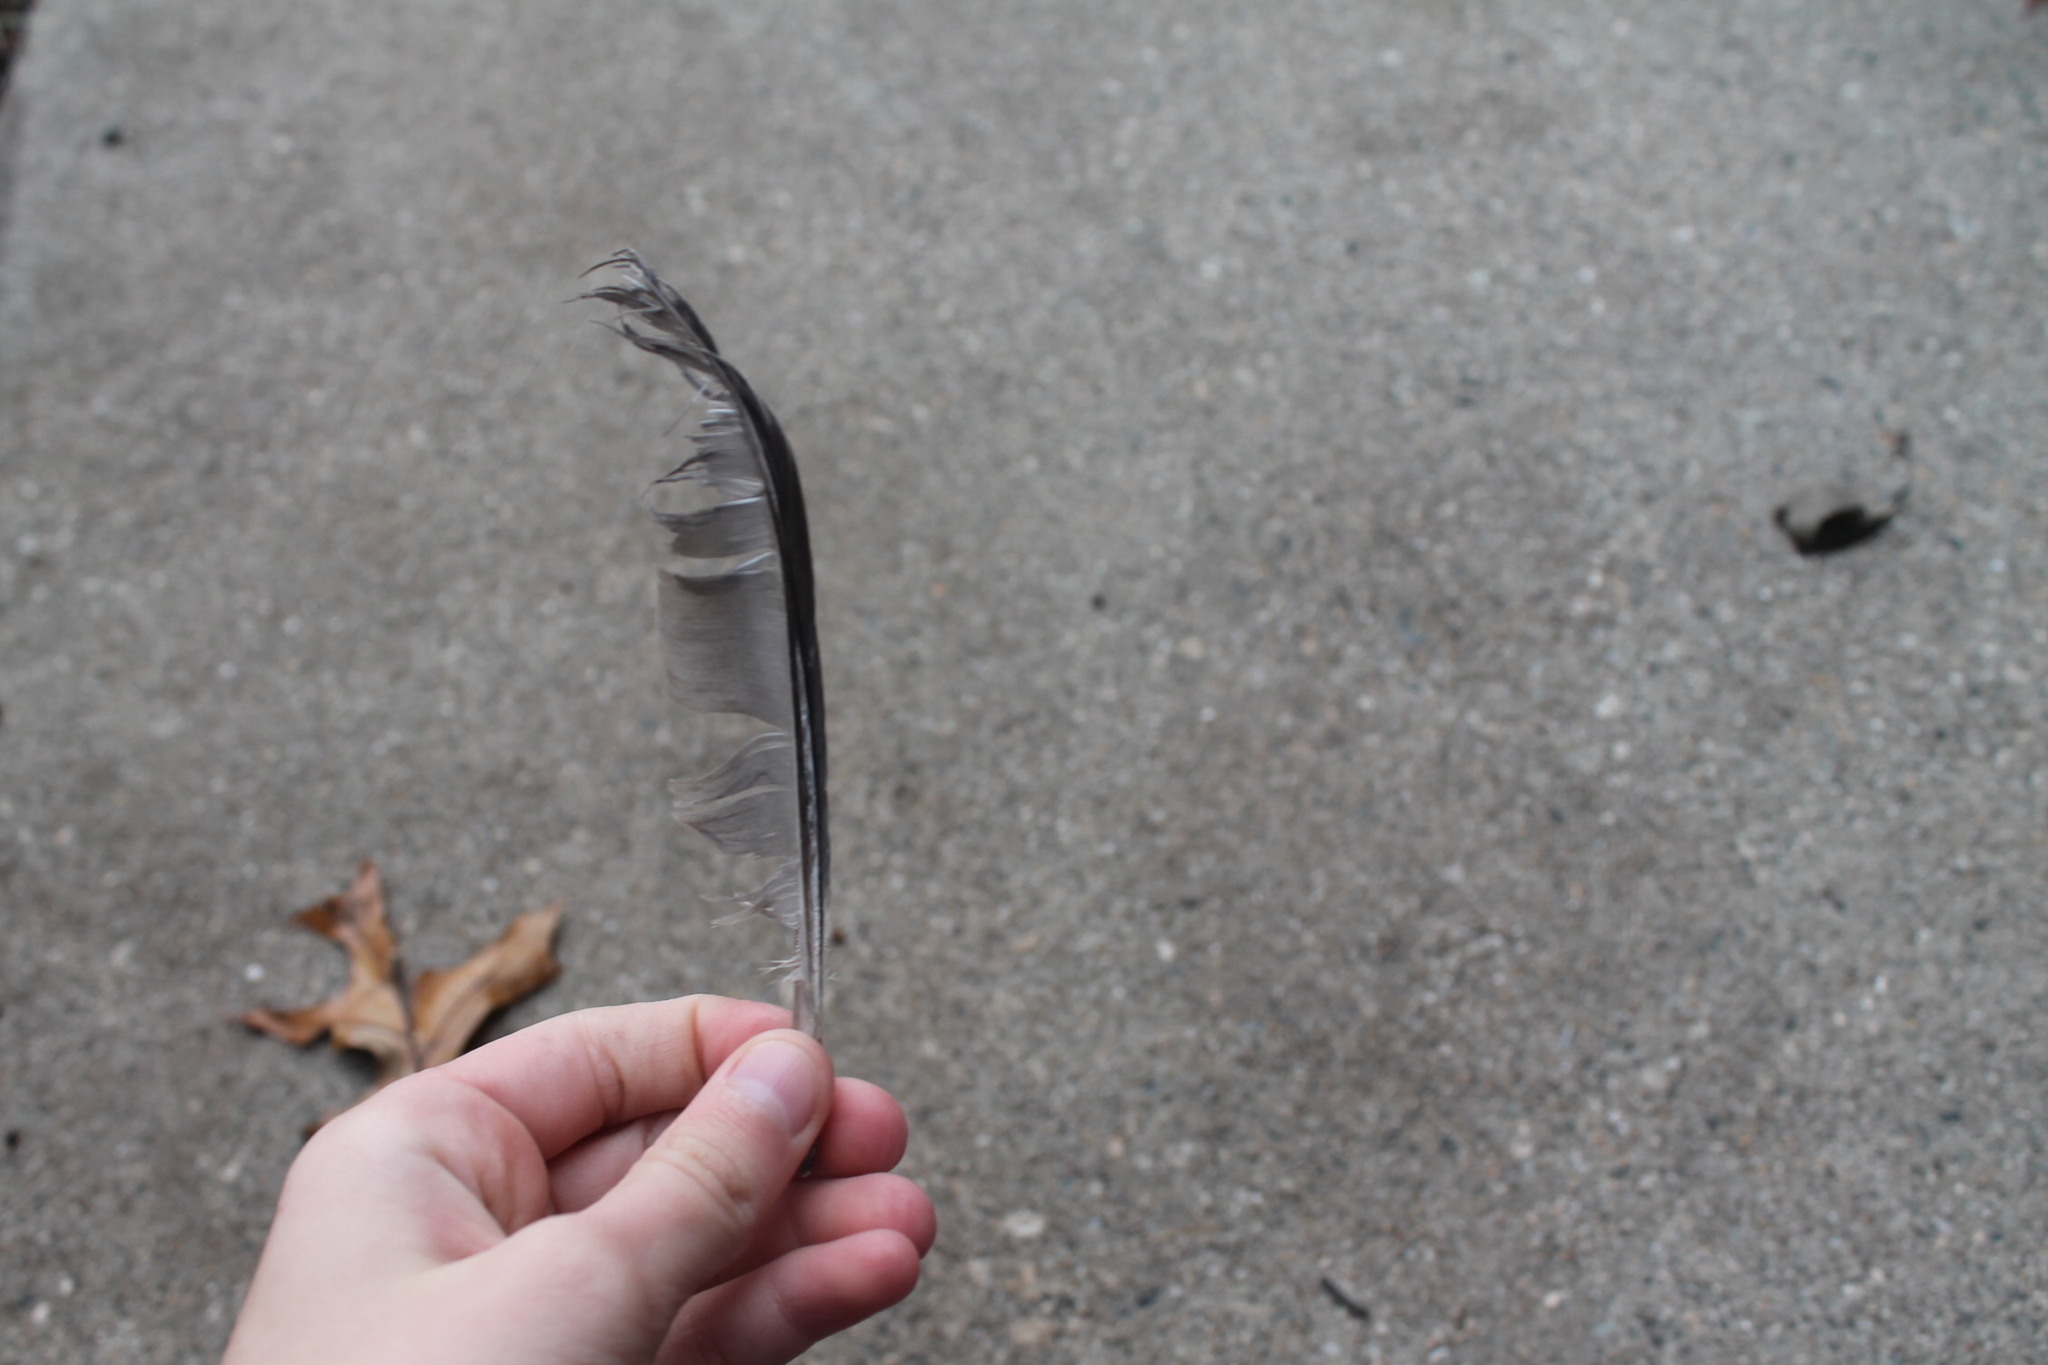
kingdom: Animalia
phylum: Chordata
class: Aves
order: Columbiformes
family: Columbidae
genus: Columba
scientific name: Columba livia
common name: Rock pigeon
